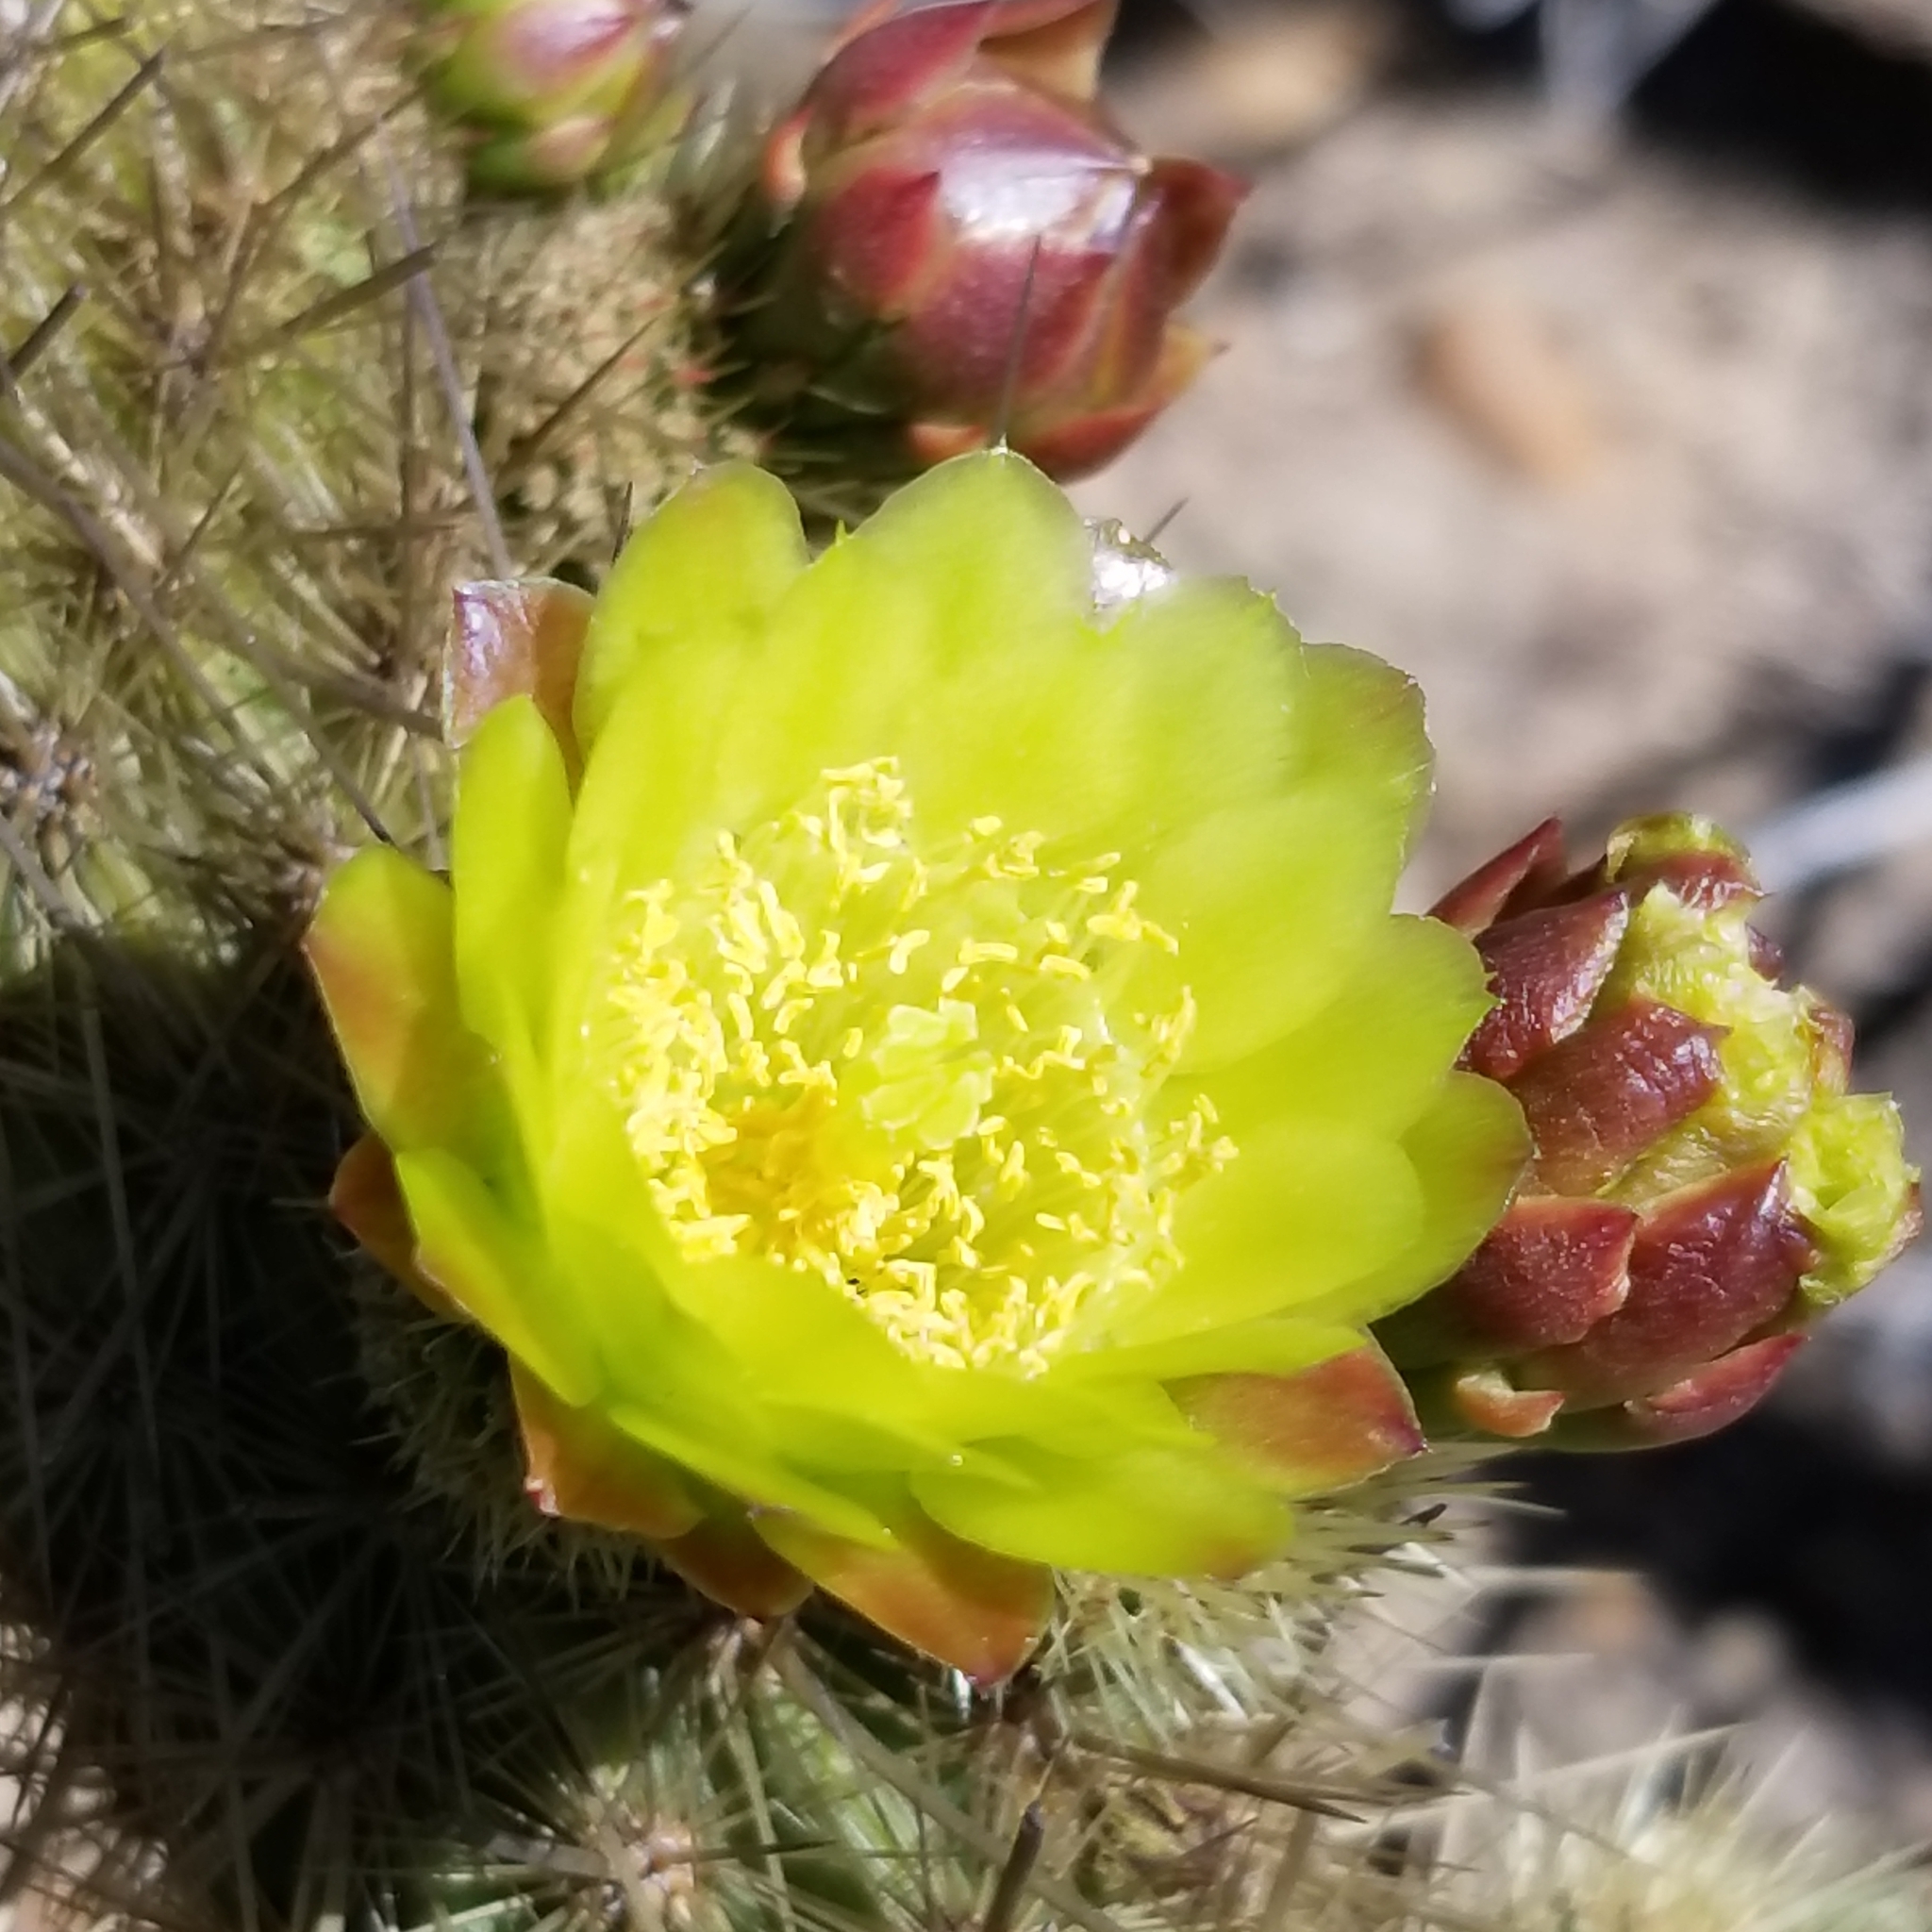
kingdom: Plantae
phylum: Tracheophyta
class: Magnoliopsida
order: Caryophyllales
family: Cactaceae
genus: Bergerocactus
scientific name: Bergerocactus emoryi
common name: Golden snakecactus
